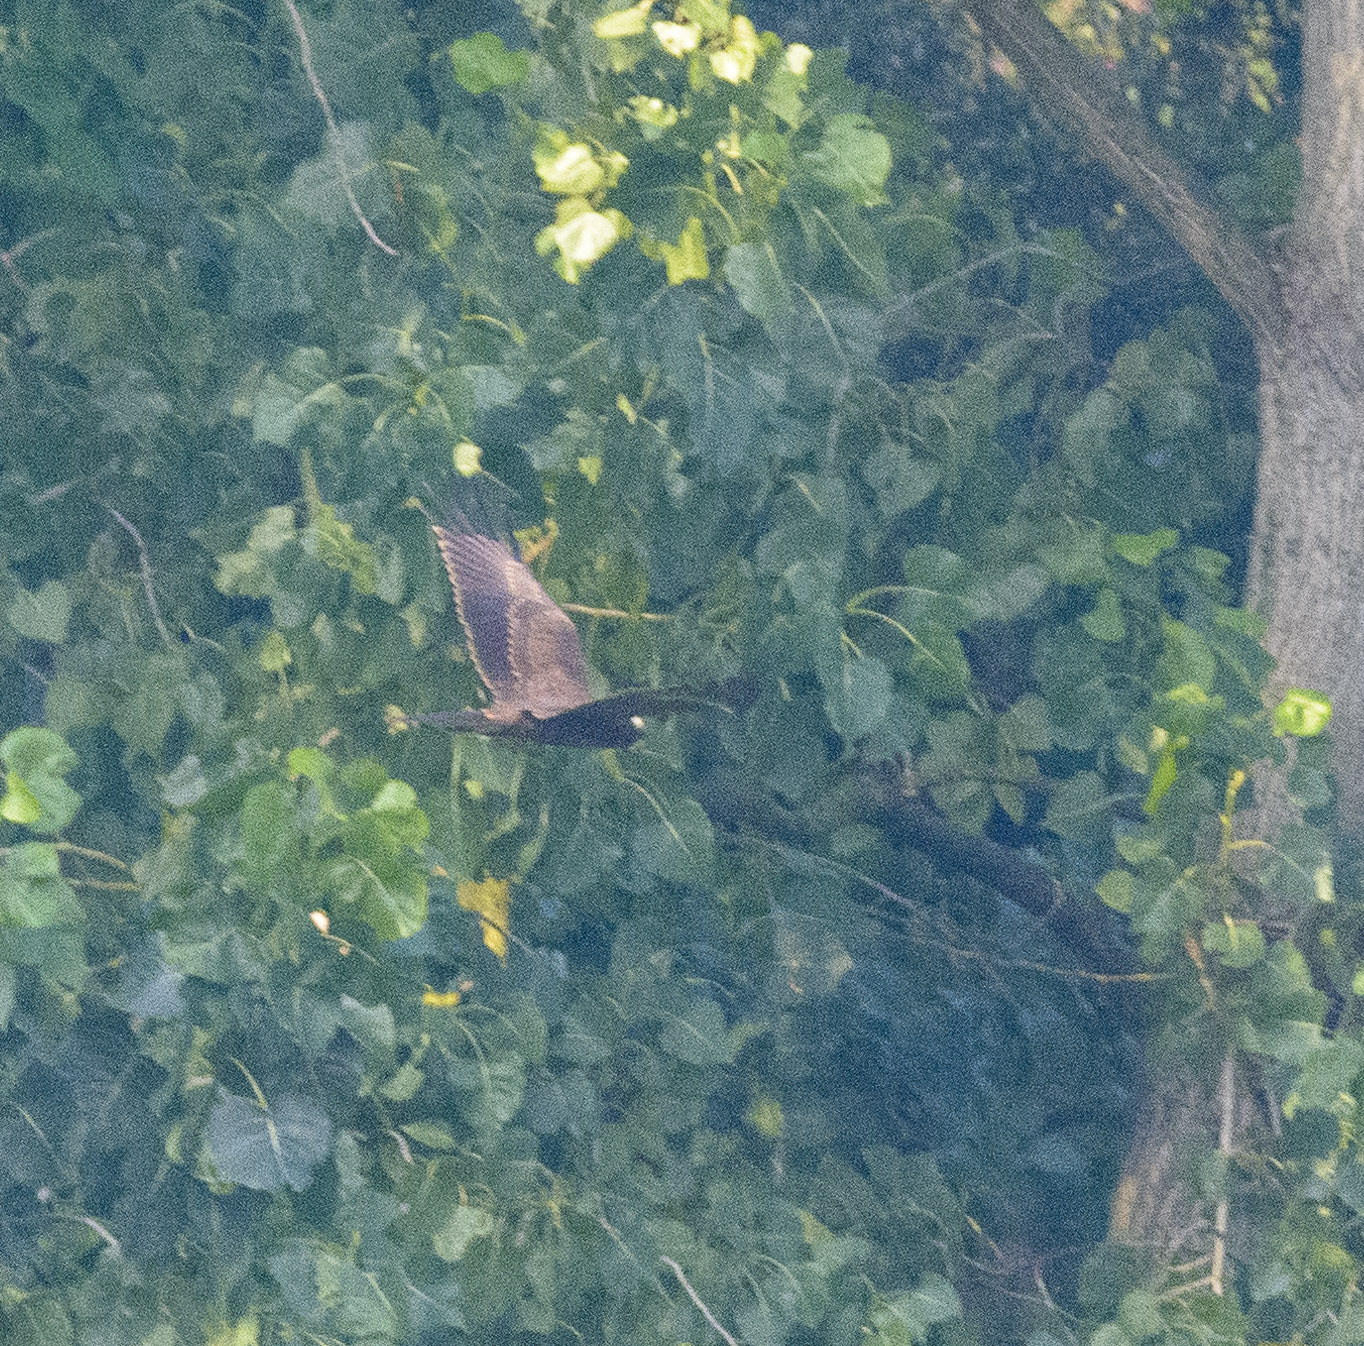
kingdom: Animalia
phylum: Chordata
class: Aves
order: Accipitriformes
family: Accipitridae
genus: Circus
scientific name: Circus aeruginosus
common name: Western marsh harrier
